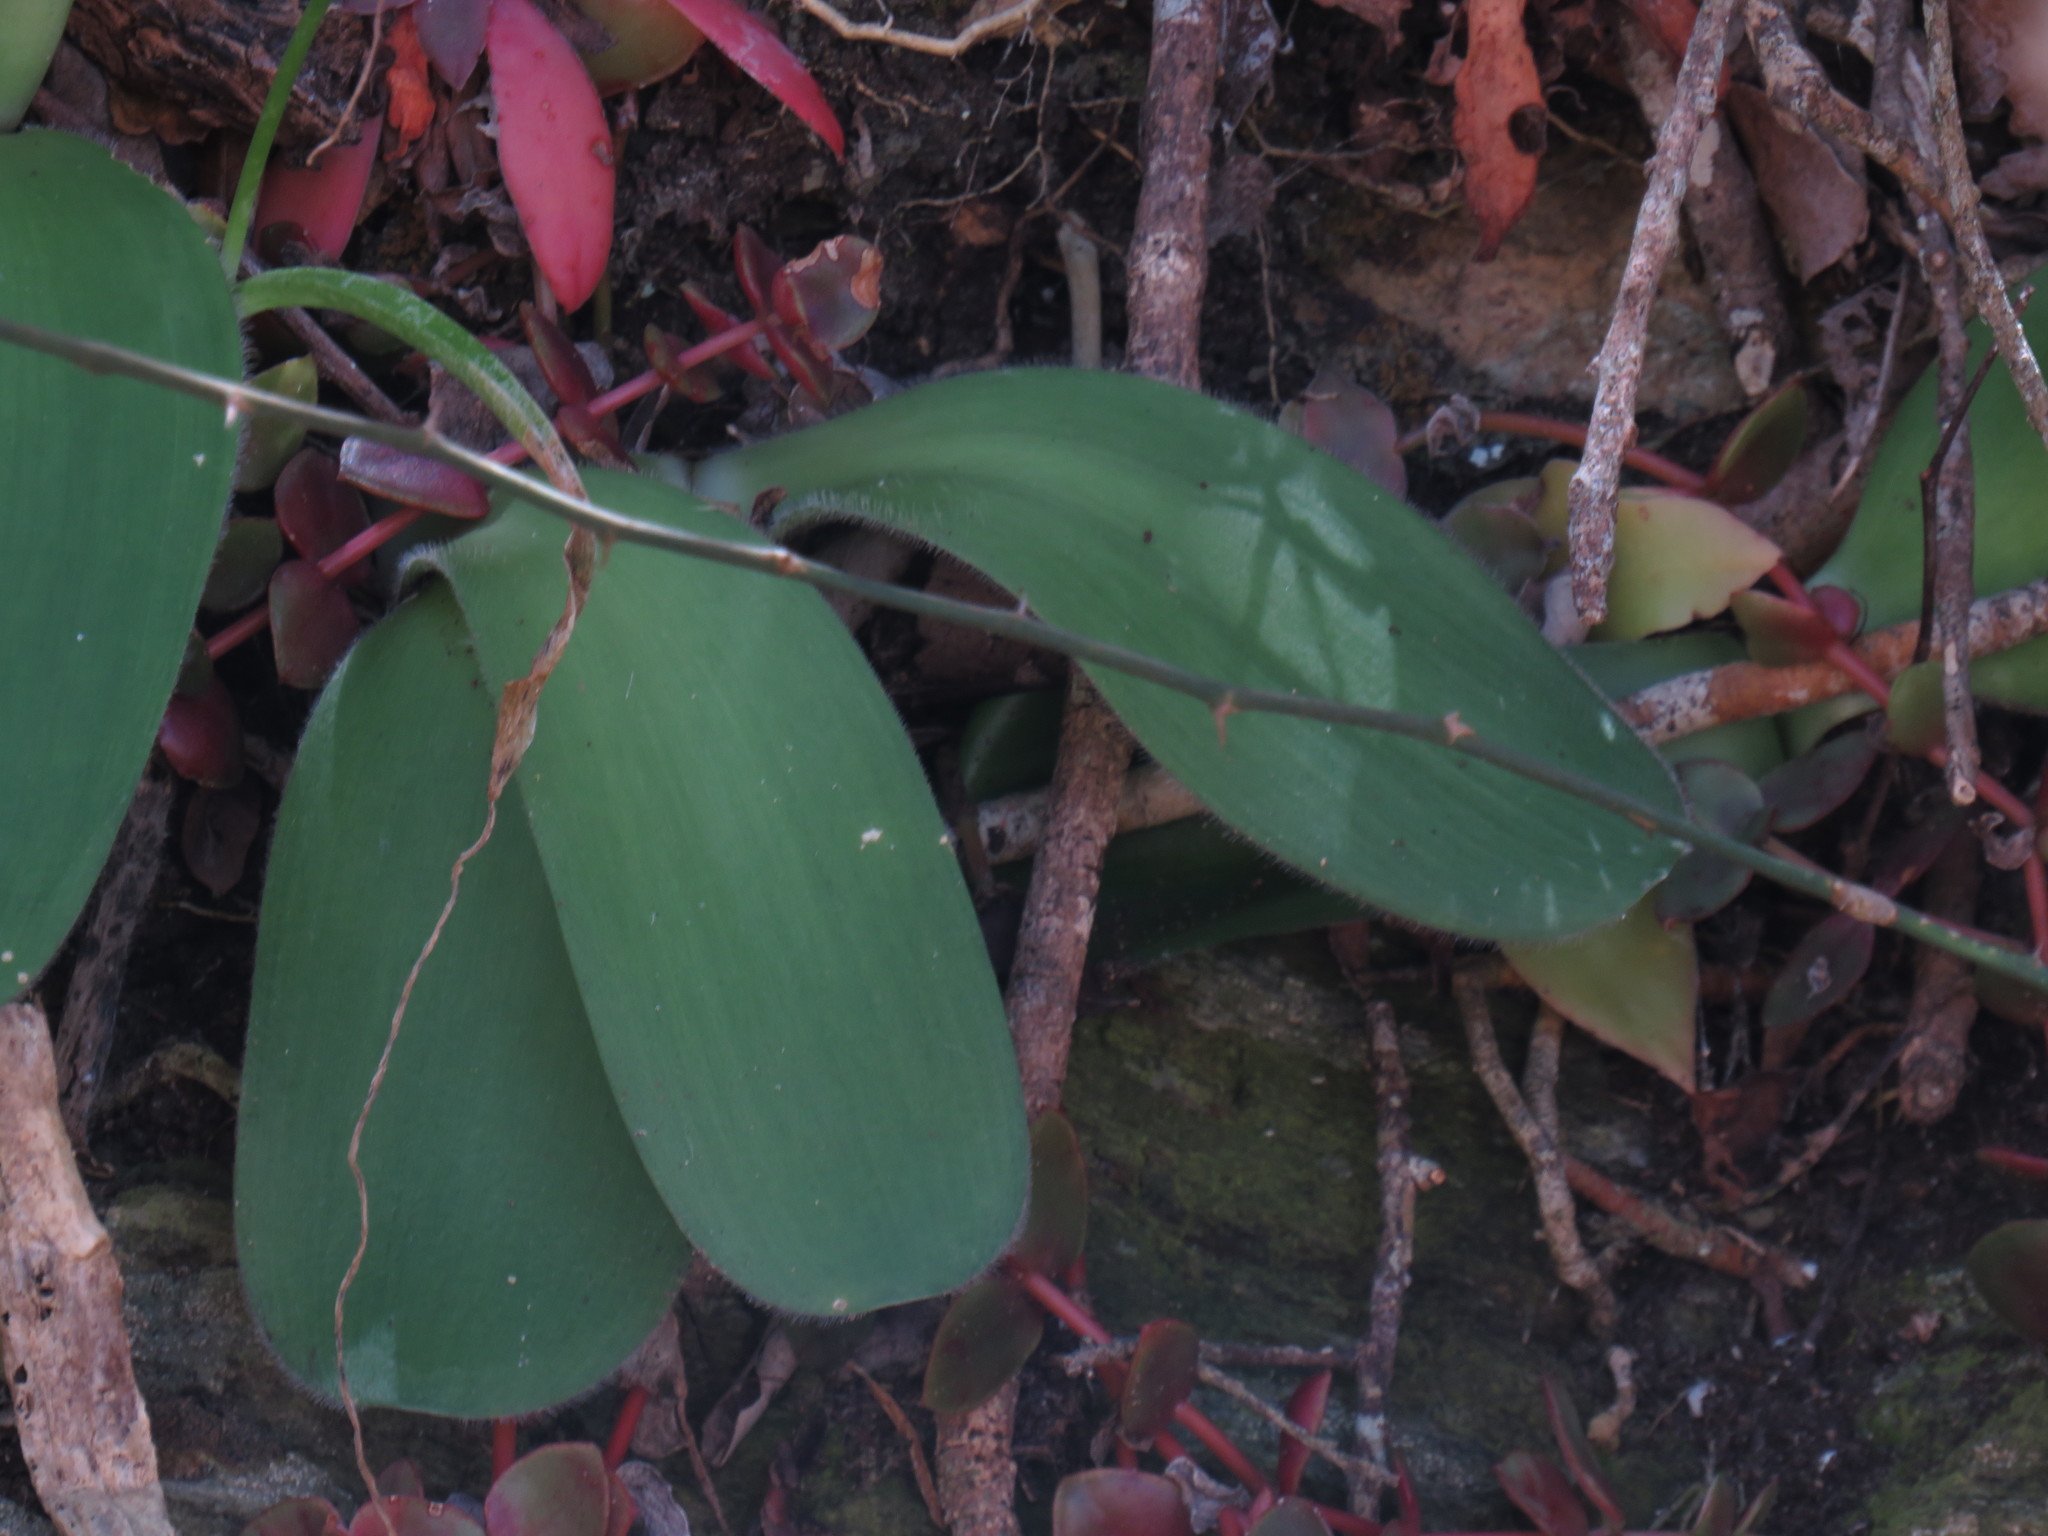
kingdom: Plantae
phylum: Tracheophyta
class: Liliopsida
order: Asparagales
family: Amaryllidaceae
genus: Haemanthus
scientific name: Haemanthus albiflos
